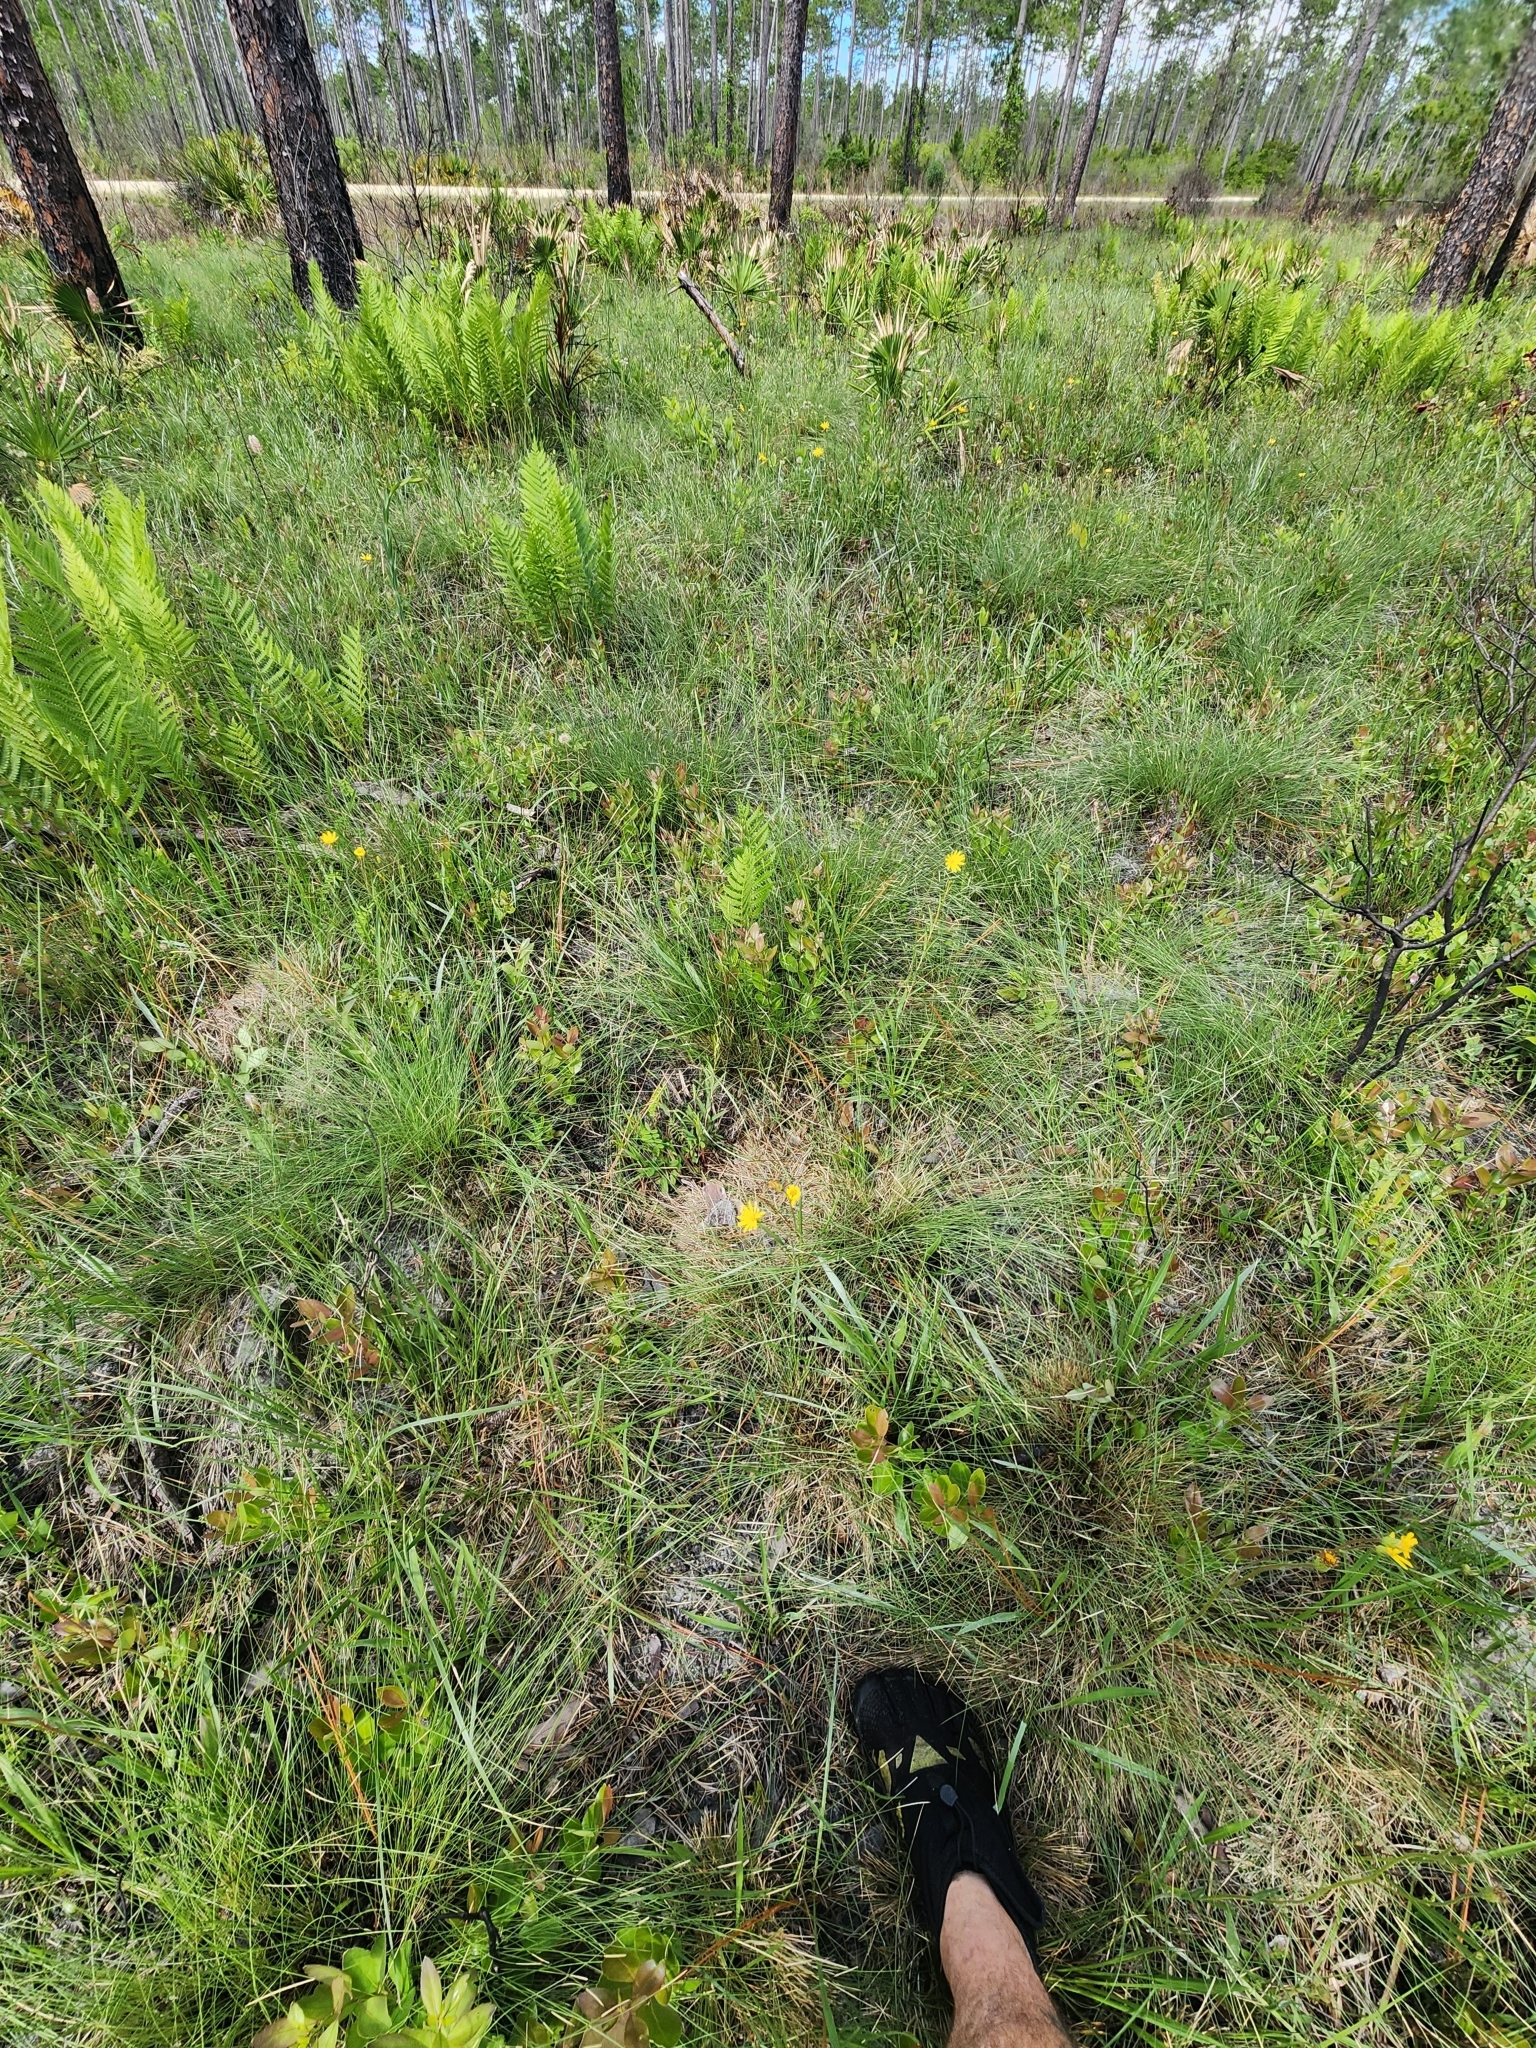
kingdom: Plantae
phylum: Tracheophyta
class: Magnoliopsida
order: Asterales
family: Asteraceae
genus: Pityopsis
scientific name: Pityopsis oligantha
